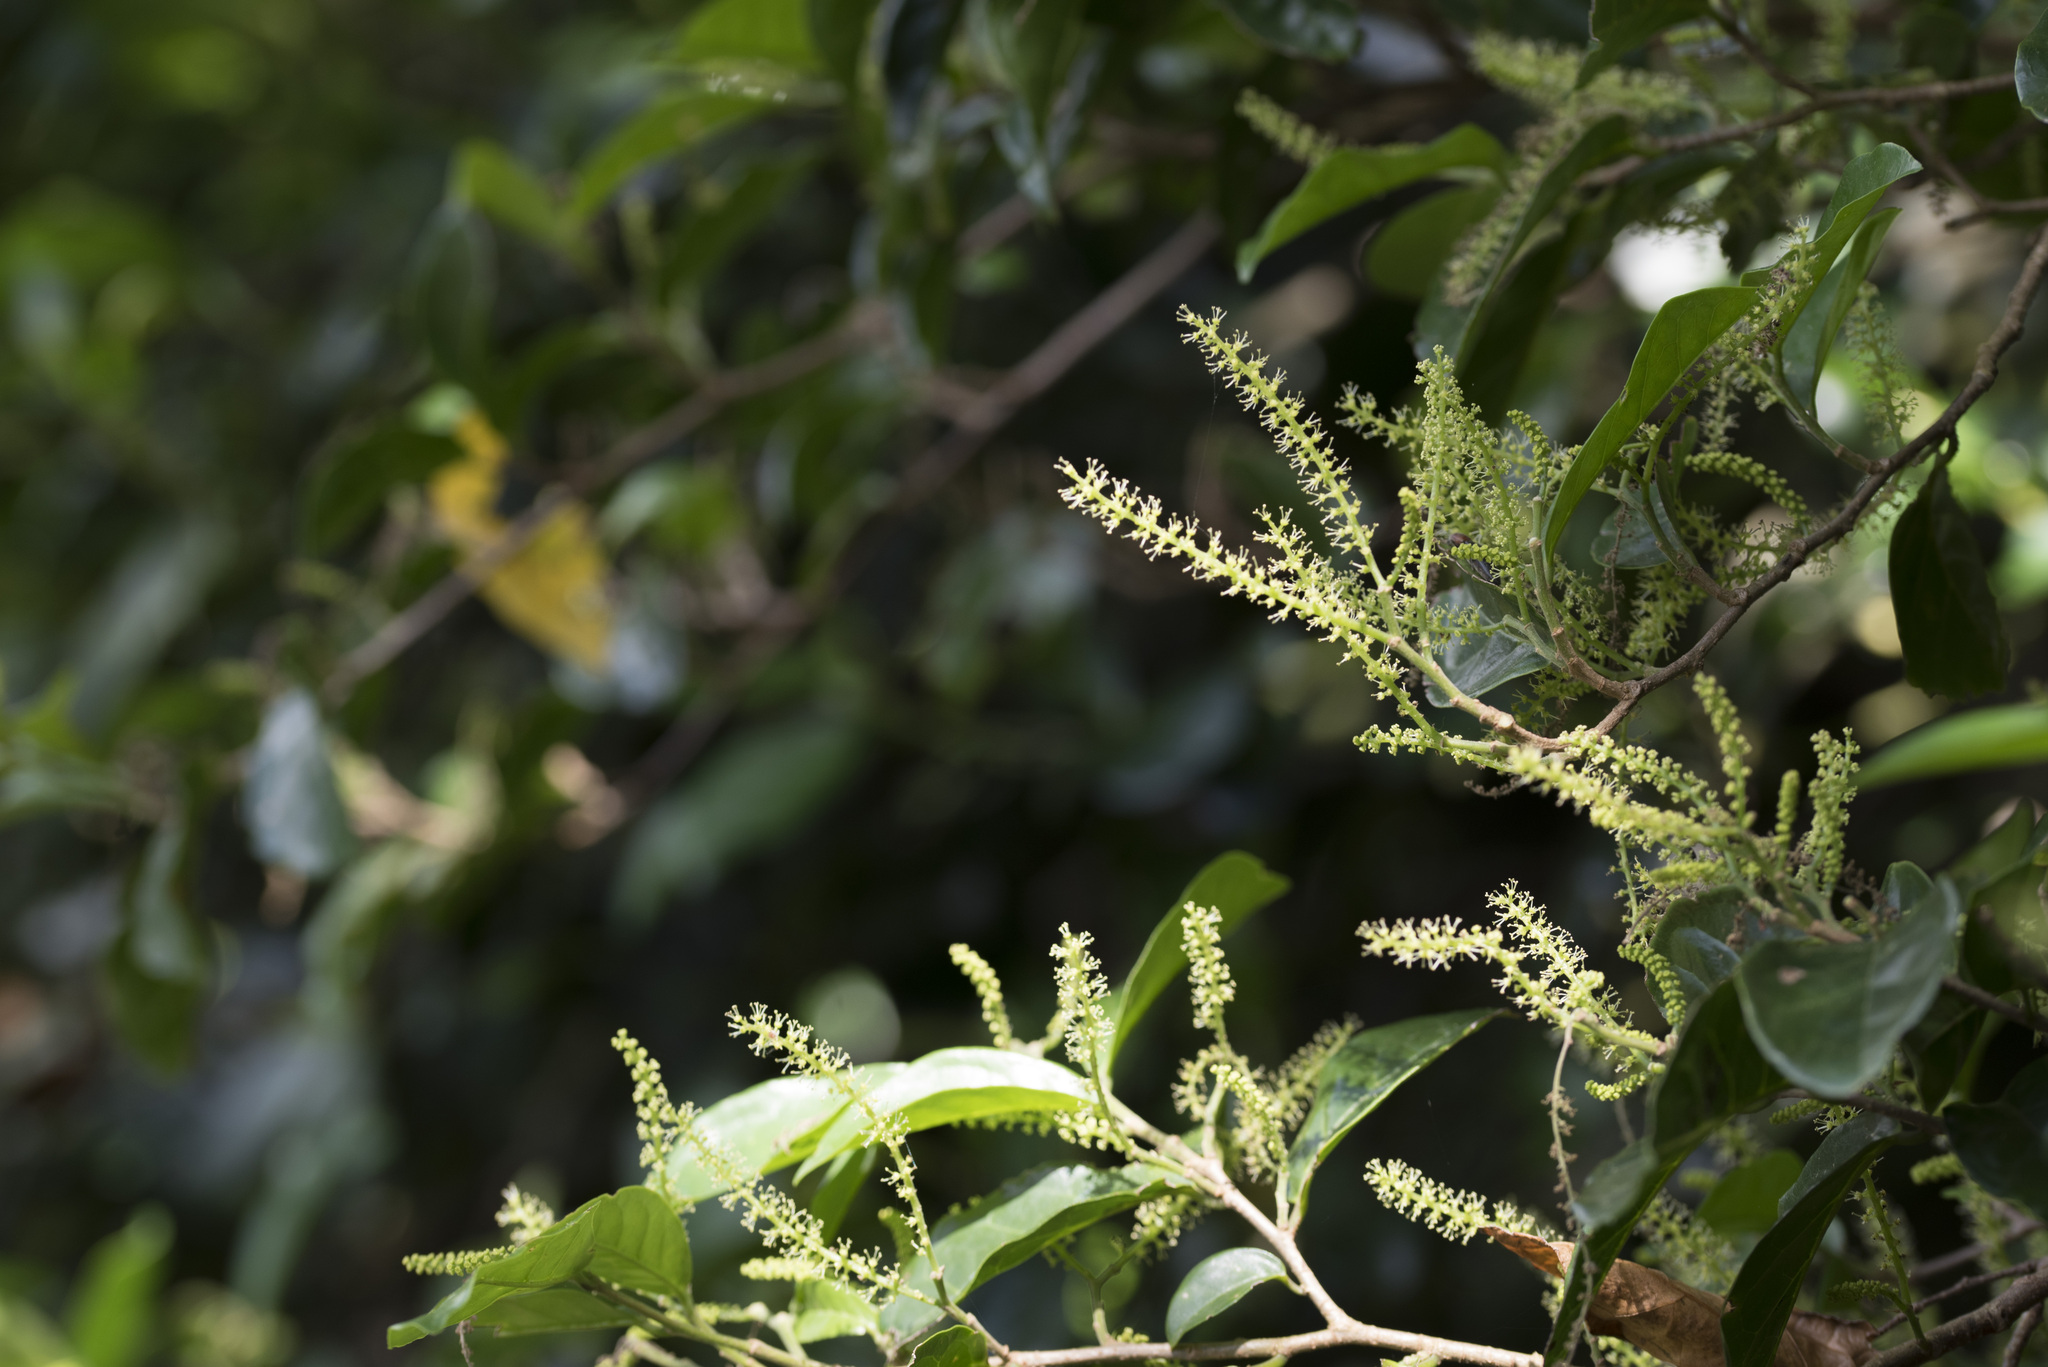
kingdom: Plantae
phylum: Tracheophyta
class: Magnoliopsida
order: Malpighiales
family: Phyllanthaceae
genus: Antidesma
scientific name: Antidesma montanum
